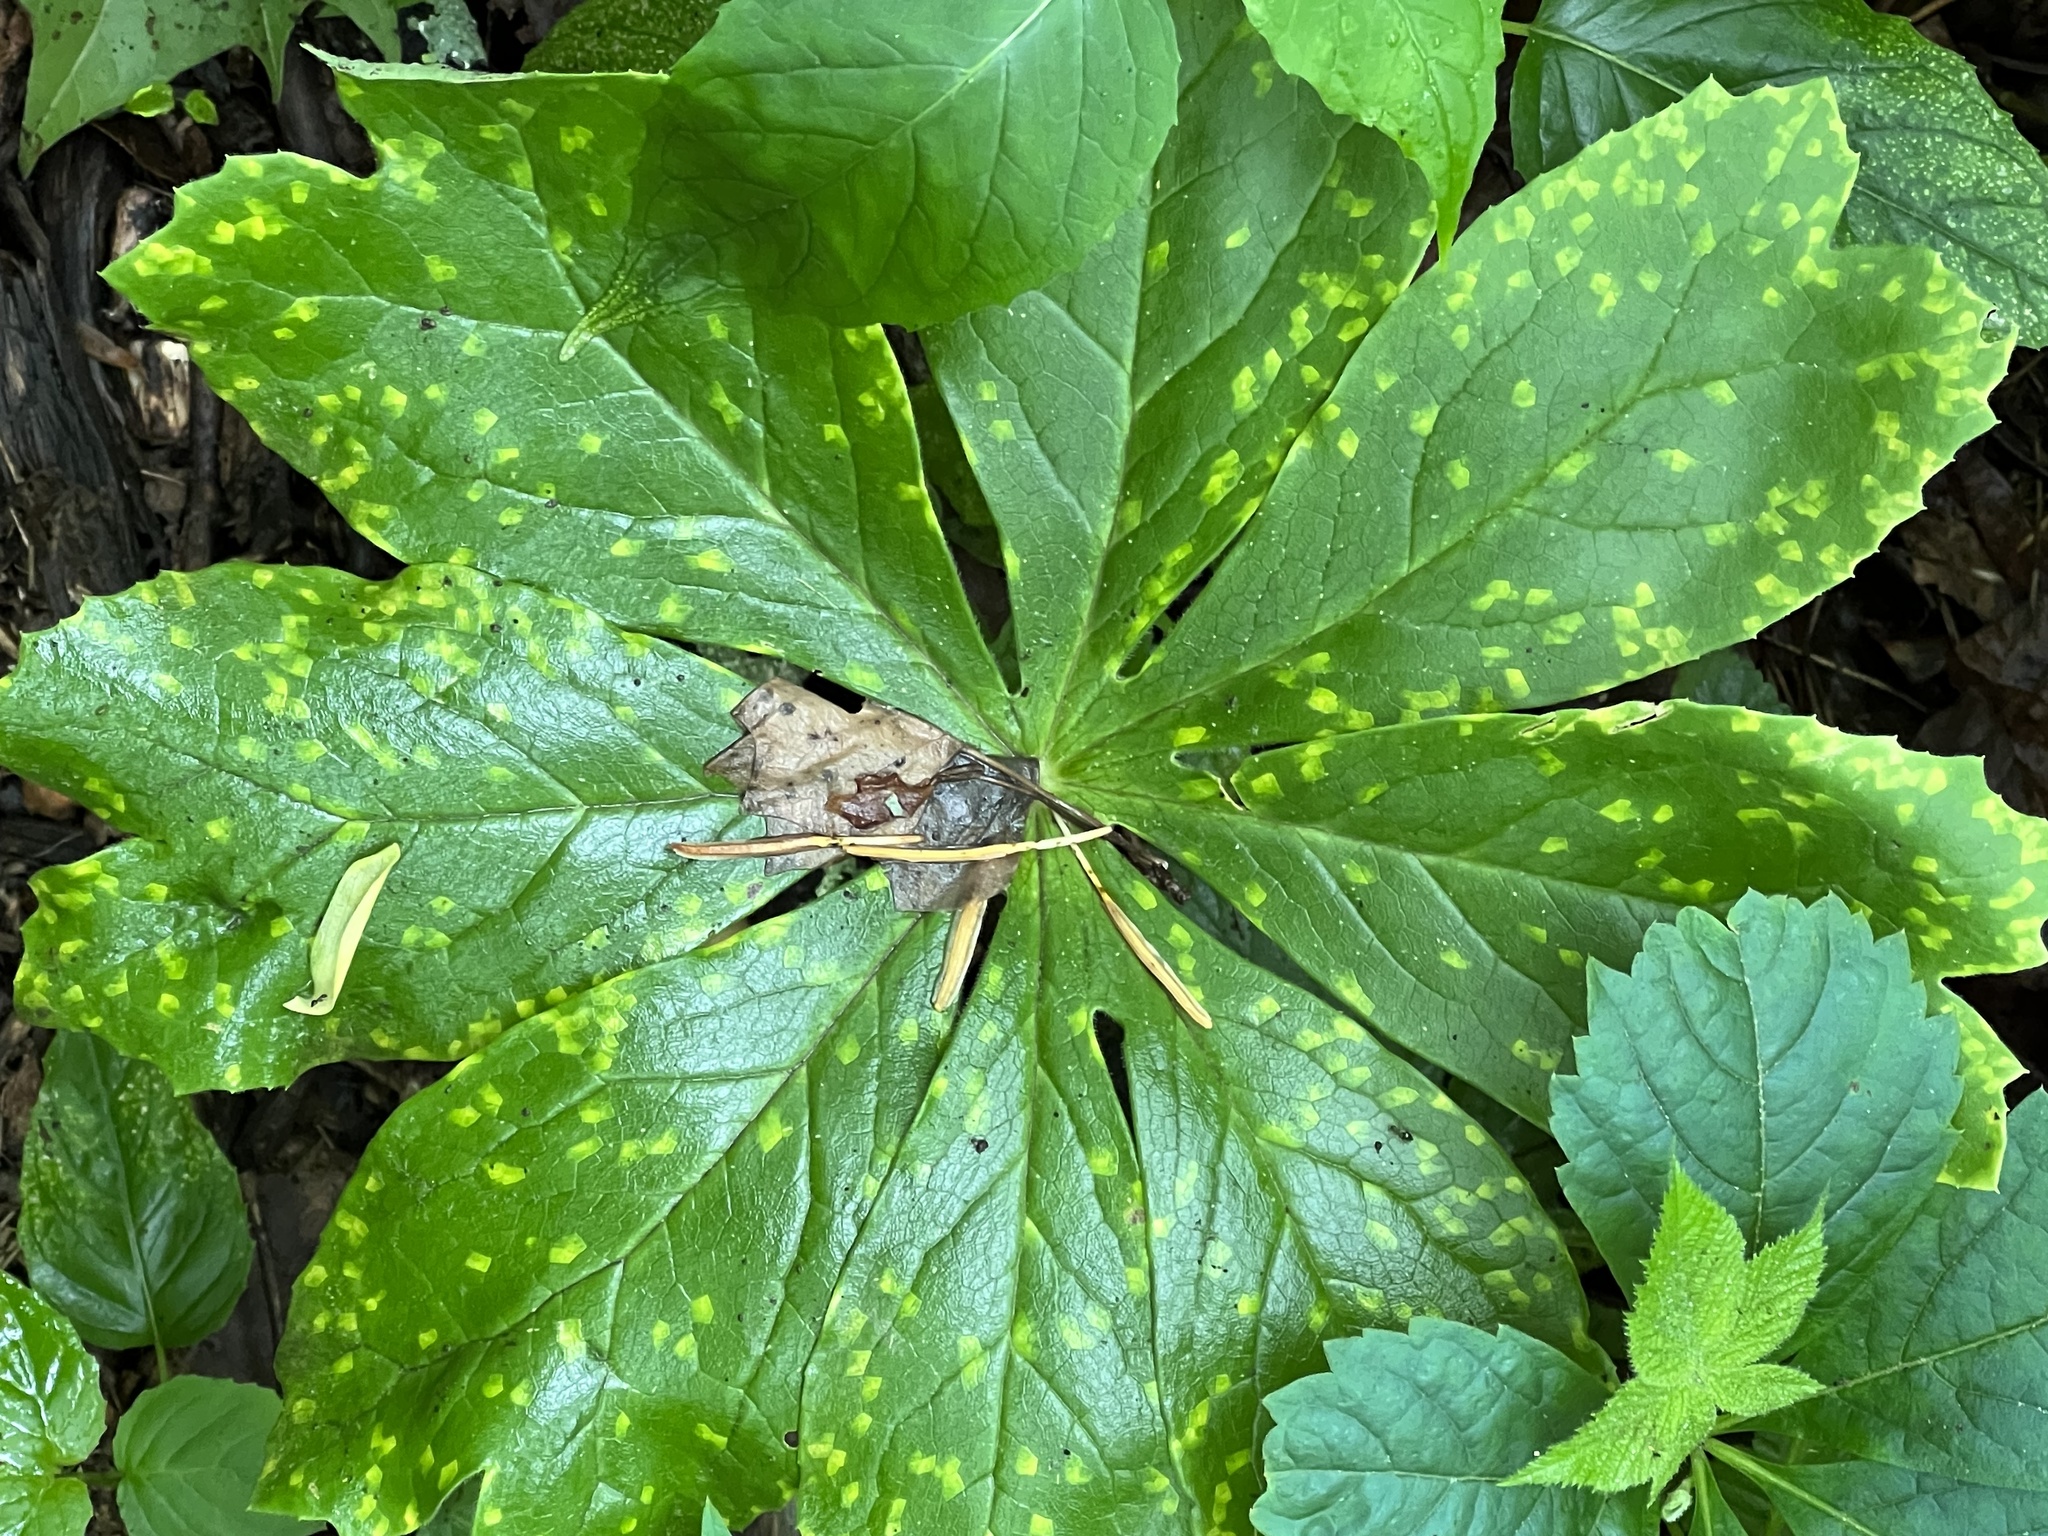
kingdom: Fungi
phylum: Basidiomycota
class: Pucciniomycetes
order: Pucciniales
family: Pucciniaceae
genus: Puccinia
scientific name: Puccinia podophylli
